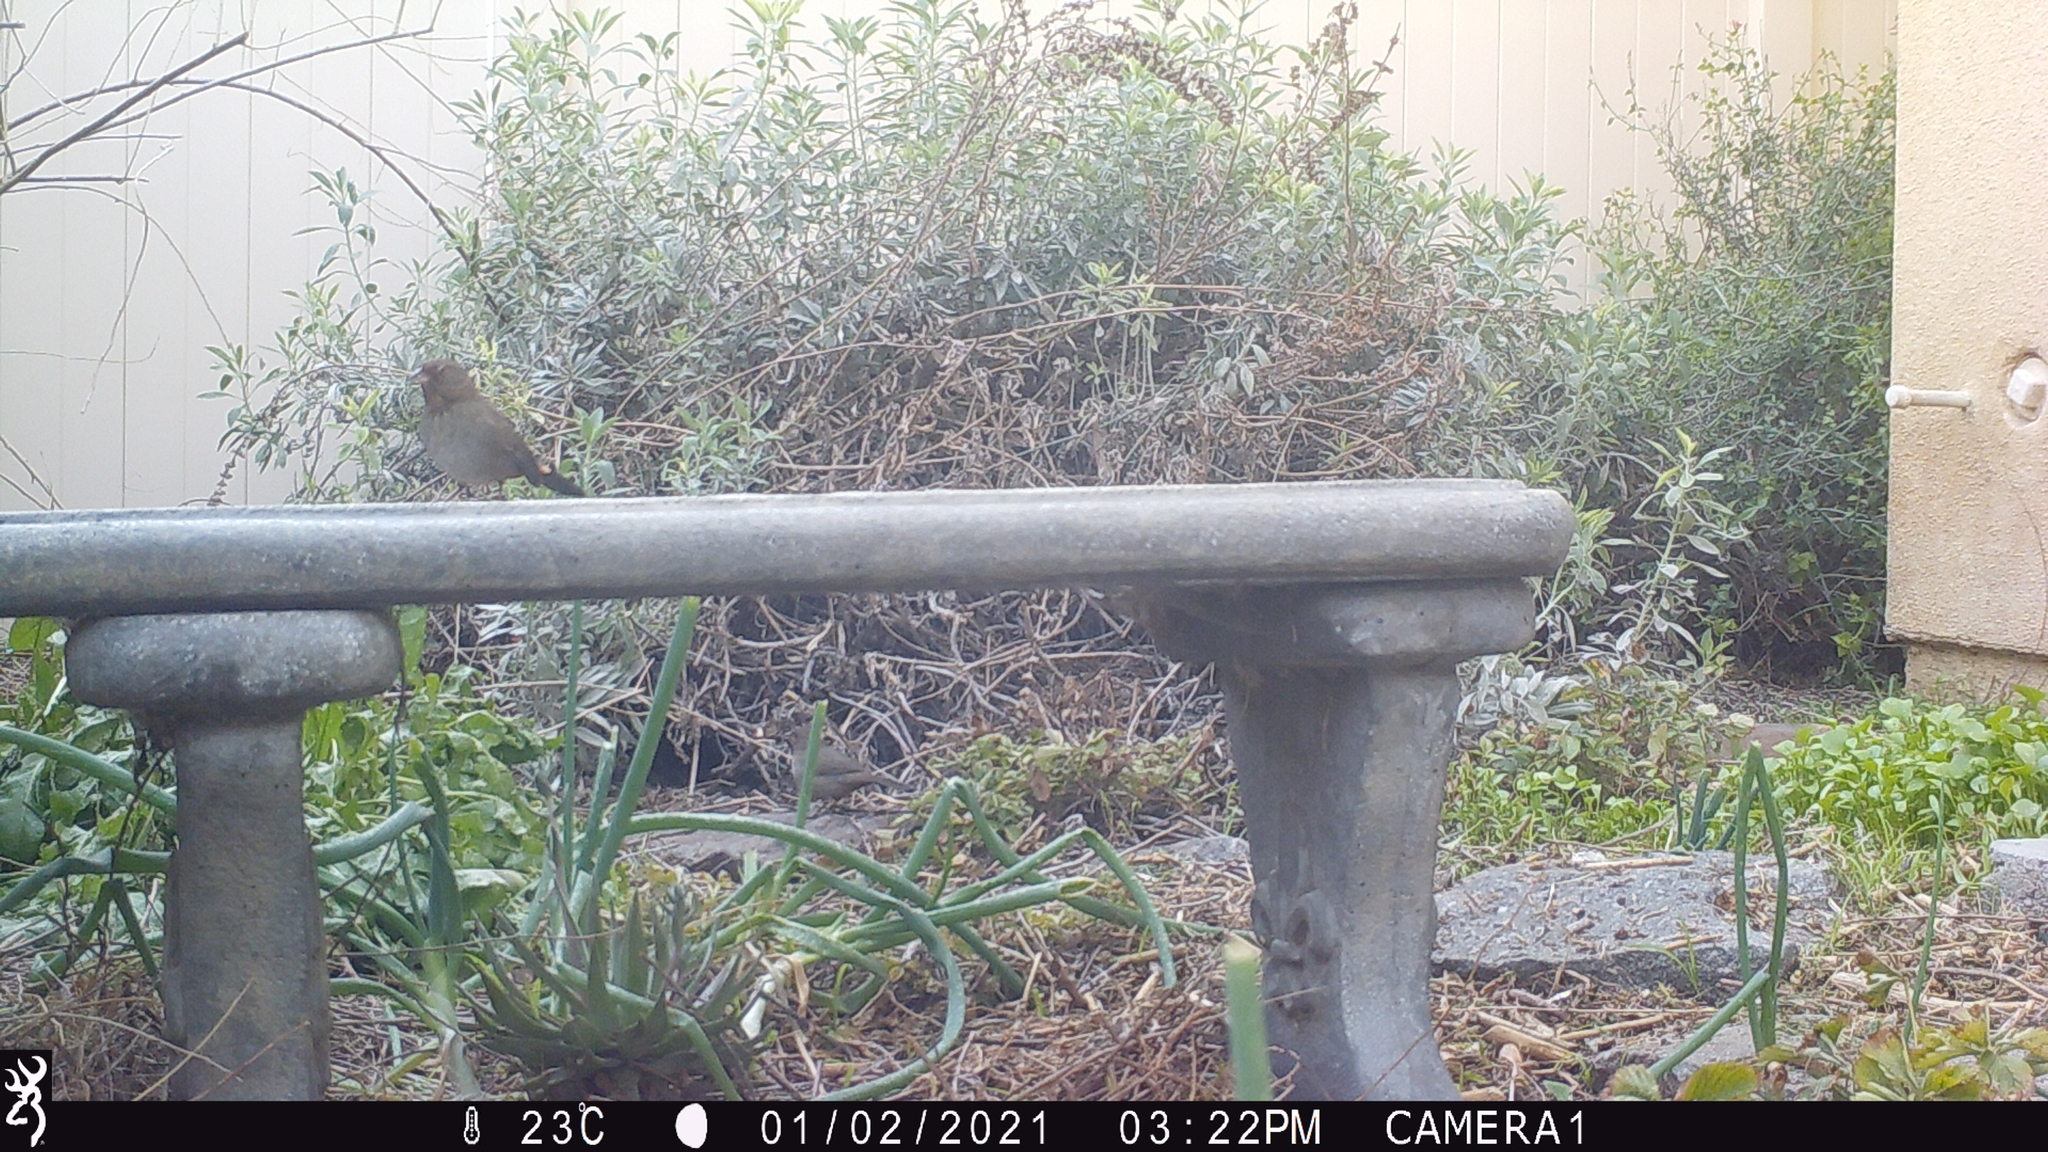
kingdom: Animalia
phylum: Chordata
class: Aves
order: Passeriformes
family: Passerellidae
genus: Melozone
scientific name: Melozone crissalis
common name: California towhee
